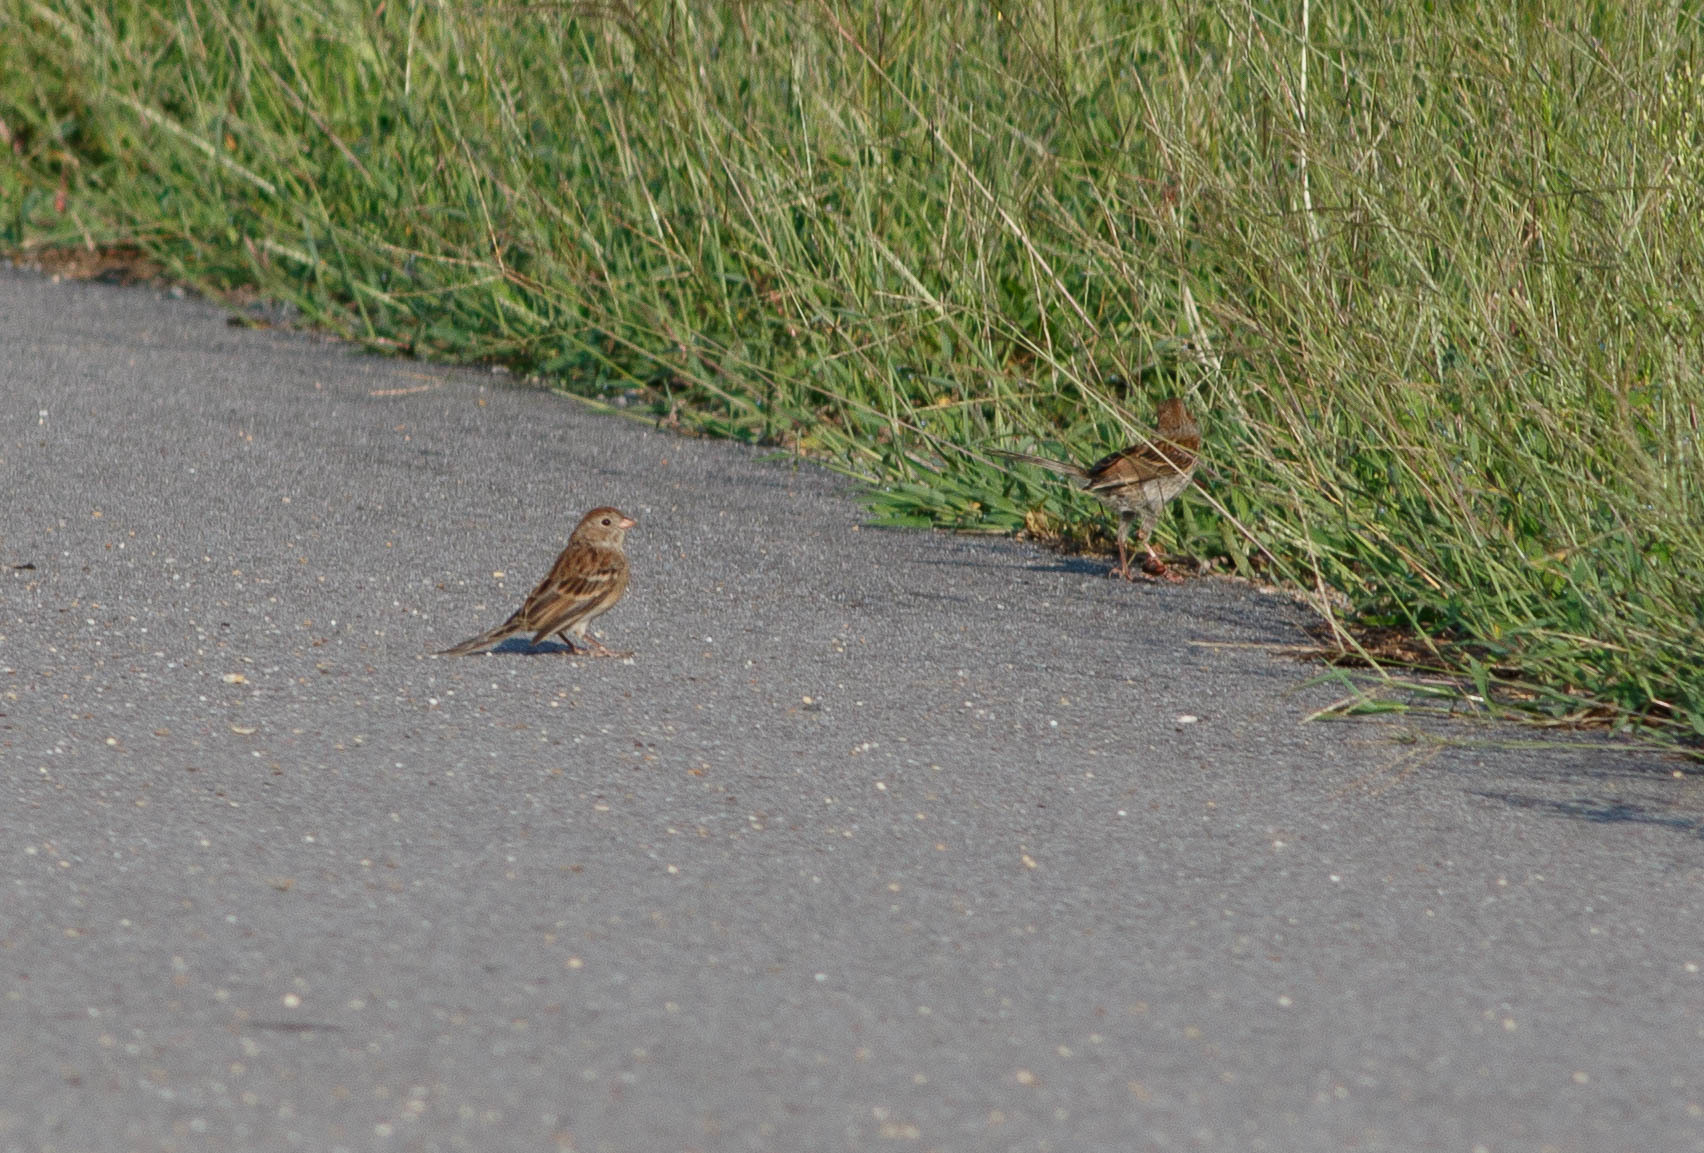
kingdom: Animalia
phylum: Chordata
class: Aves
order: Passeriformes
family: Passerellidae
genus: Spizella
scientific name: Spizella pusilla
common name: Field sparrow
